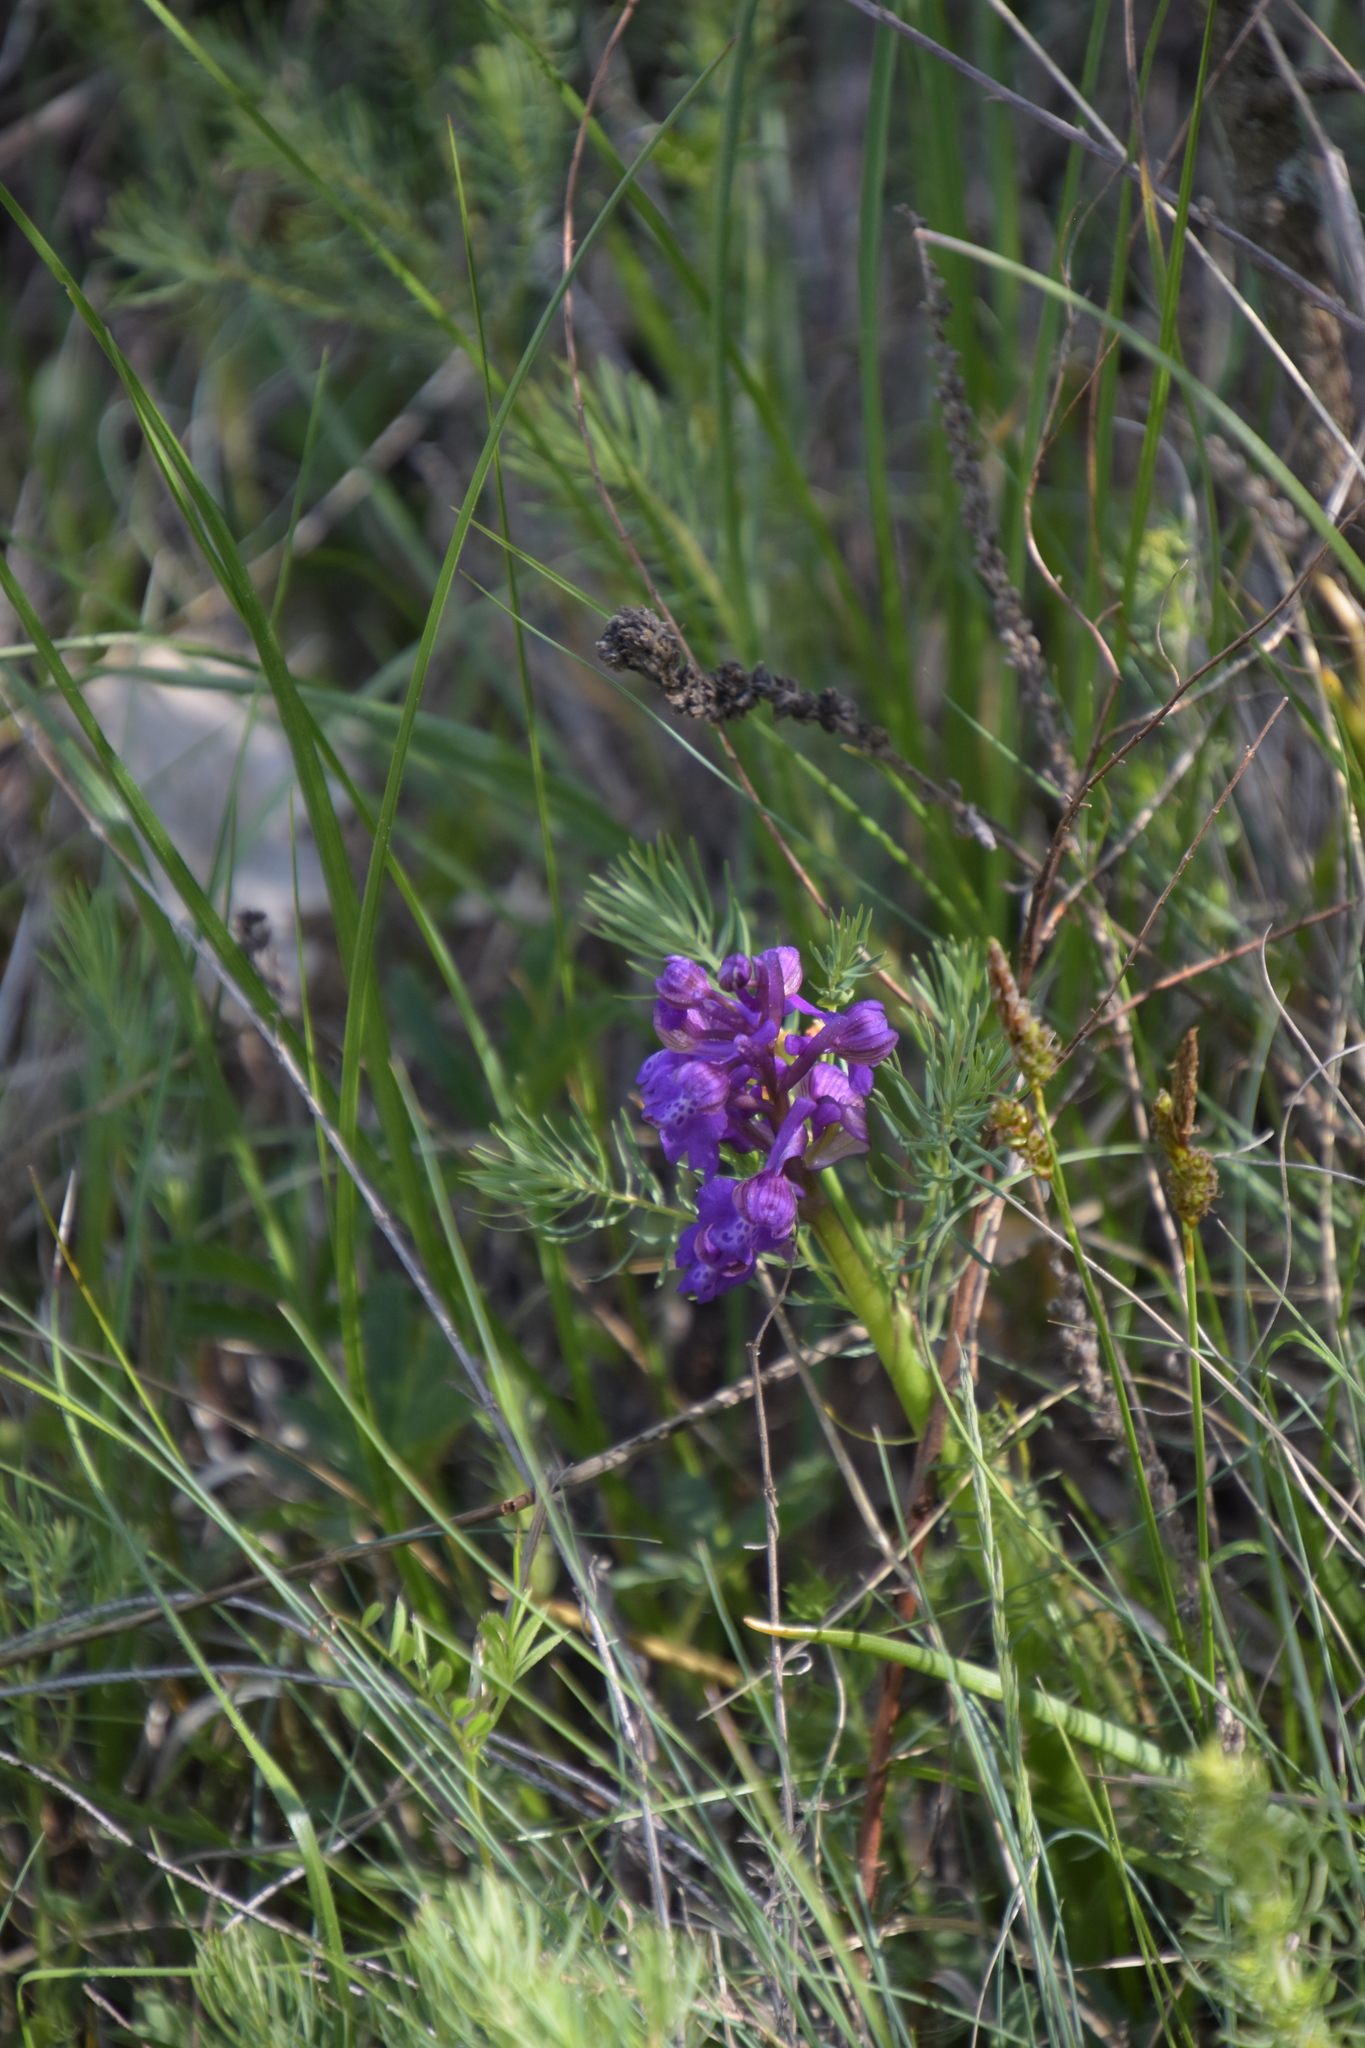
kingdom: Plantae
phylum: Tracheophyta
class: Liliopsida
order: Asparagales
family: Orchidaceae
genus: Anacamptis
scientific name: Anacamptis morio
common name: Green-winged orchid
